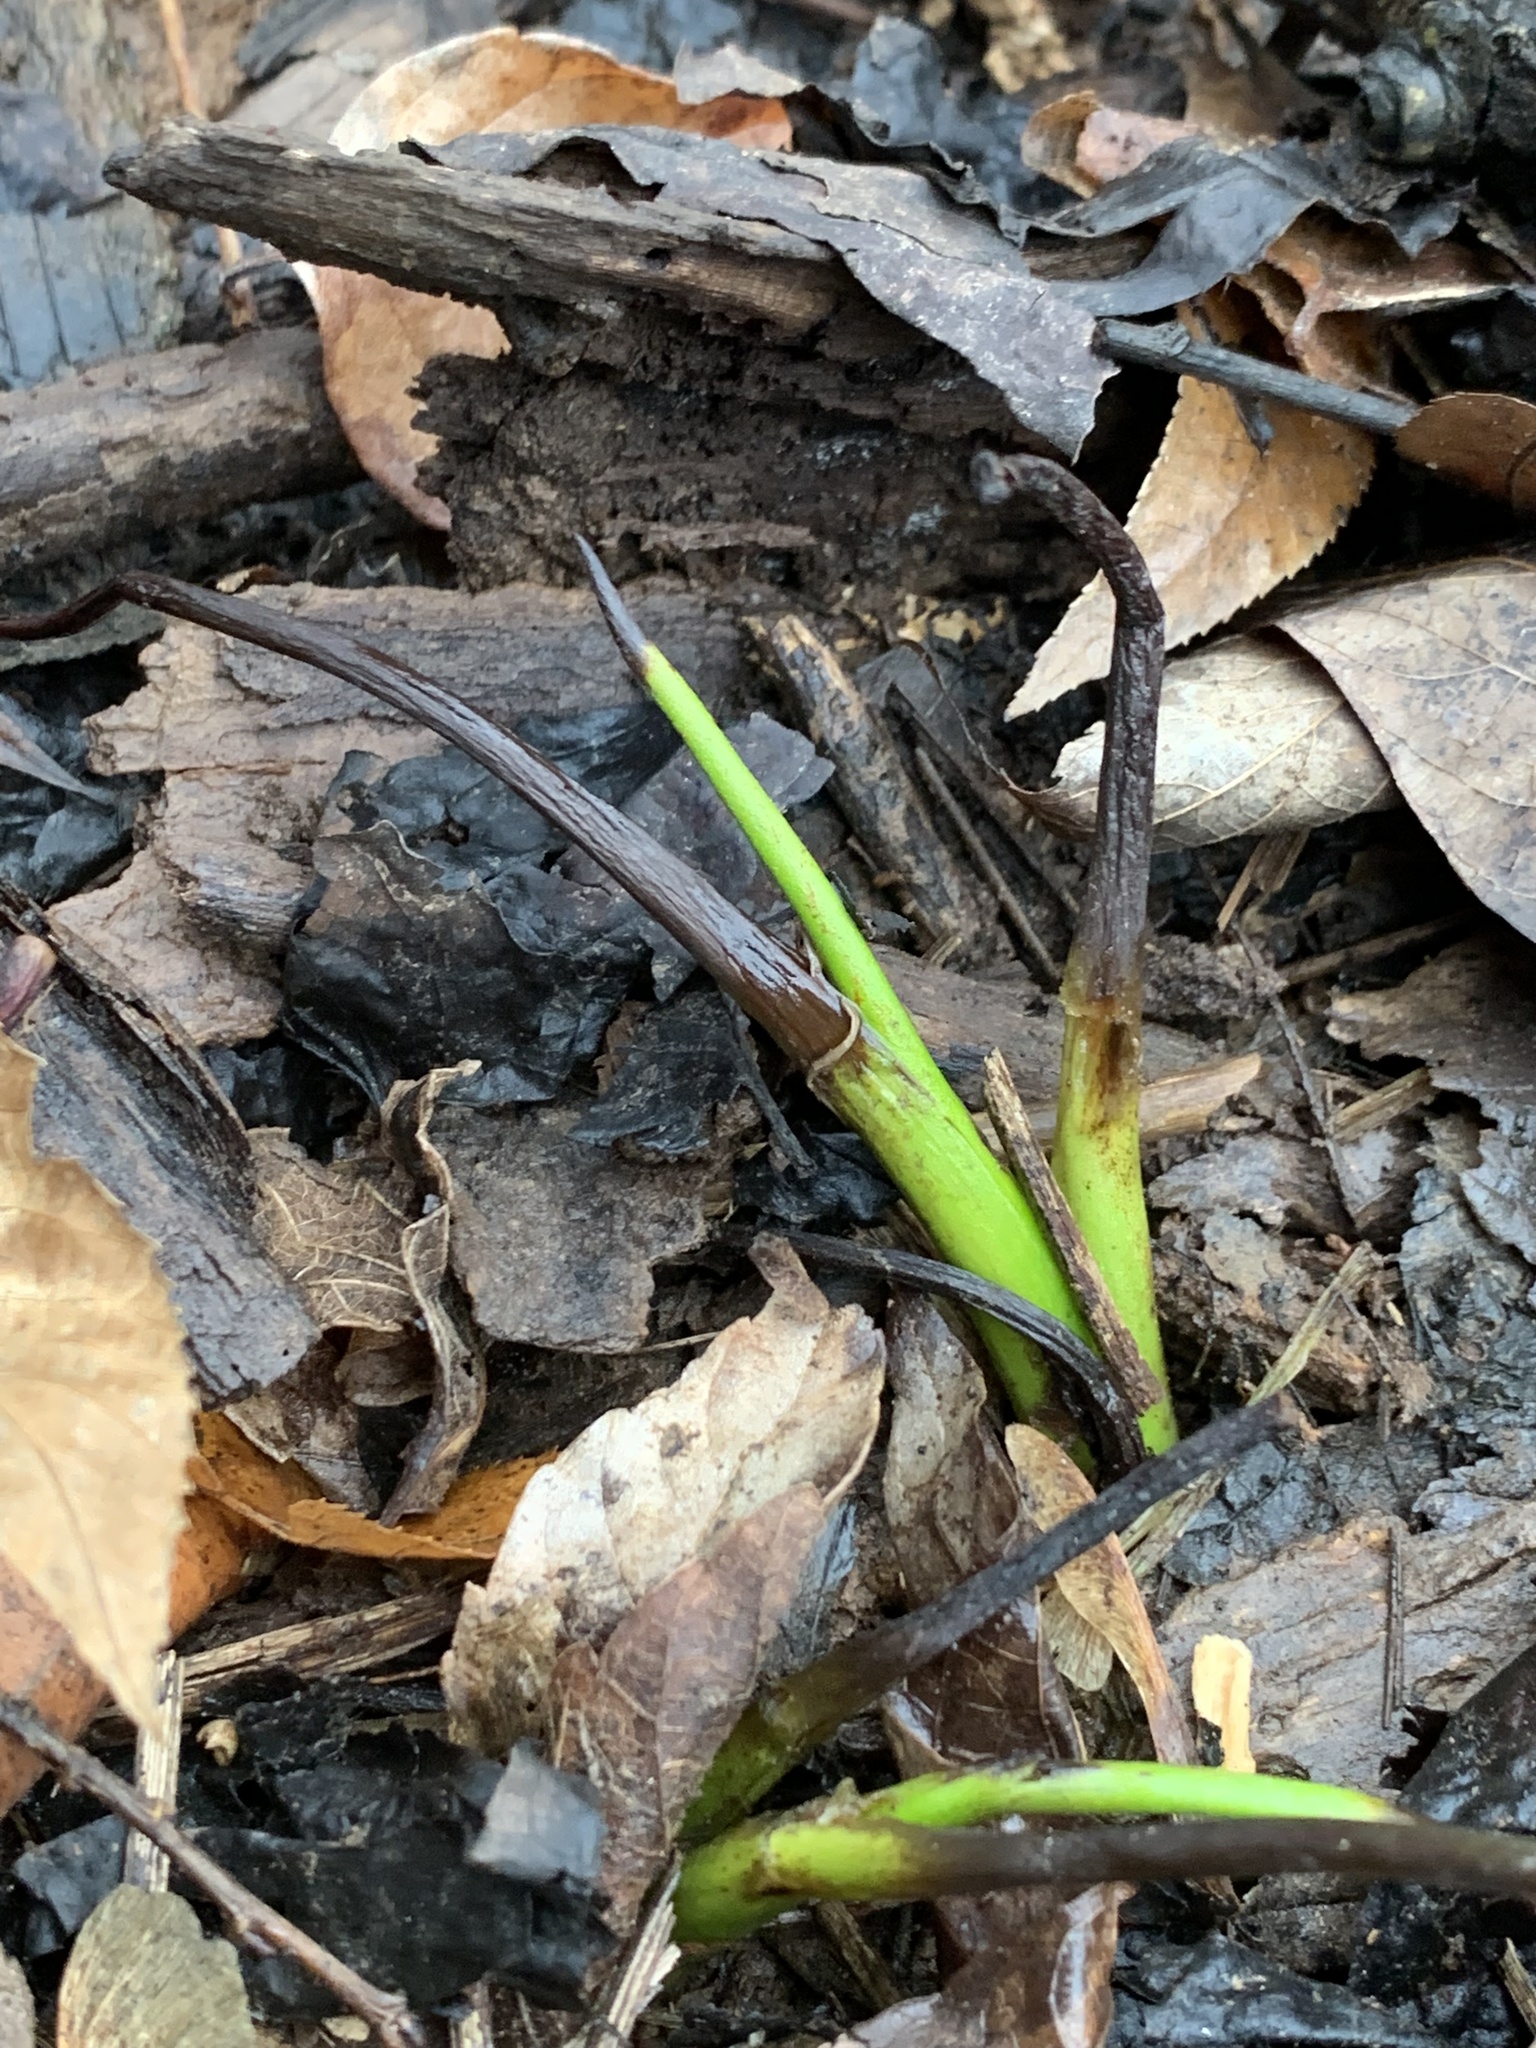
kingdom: Plantae
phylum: Tracheophyta
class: Magnoliopsida
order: Piperales
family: Saururaceae
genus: Saururus
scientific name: Saururus cernuus
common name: Lizard's-tail
